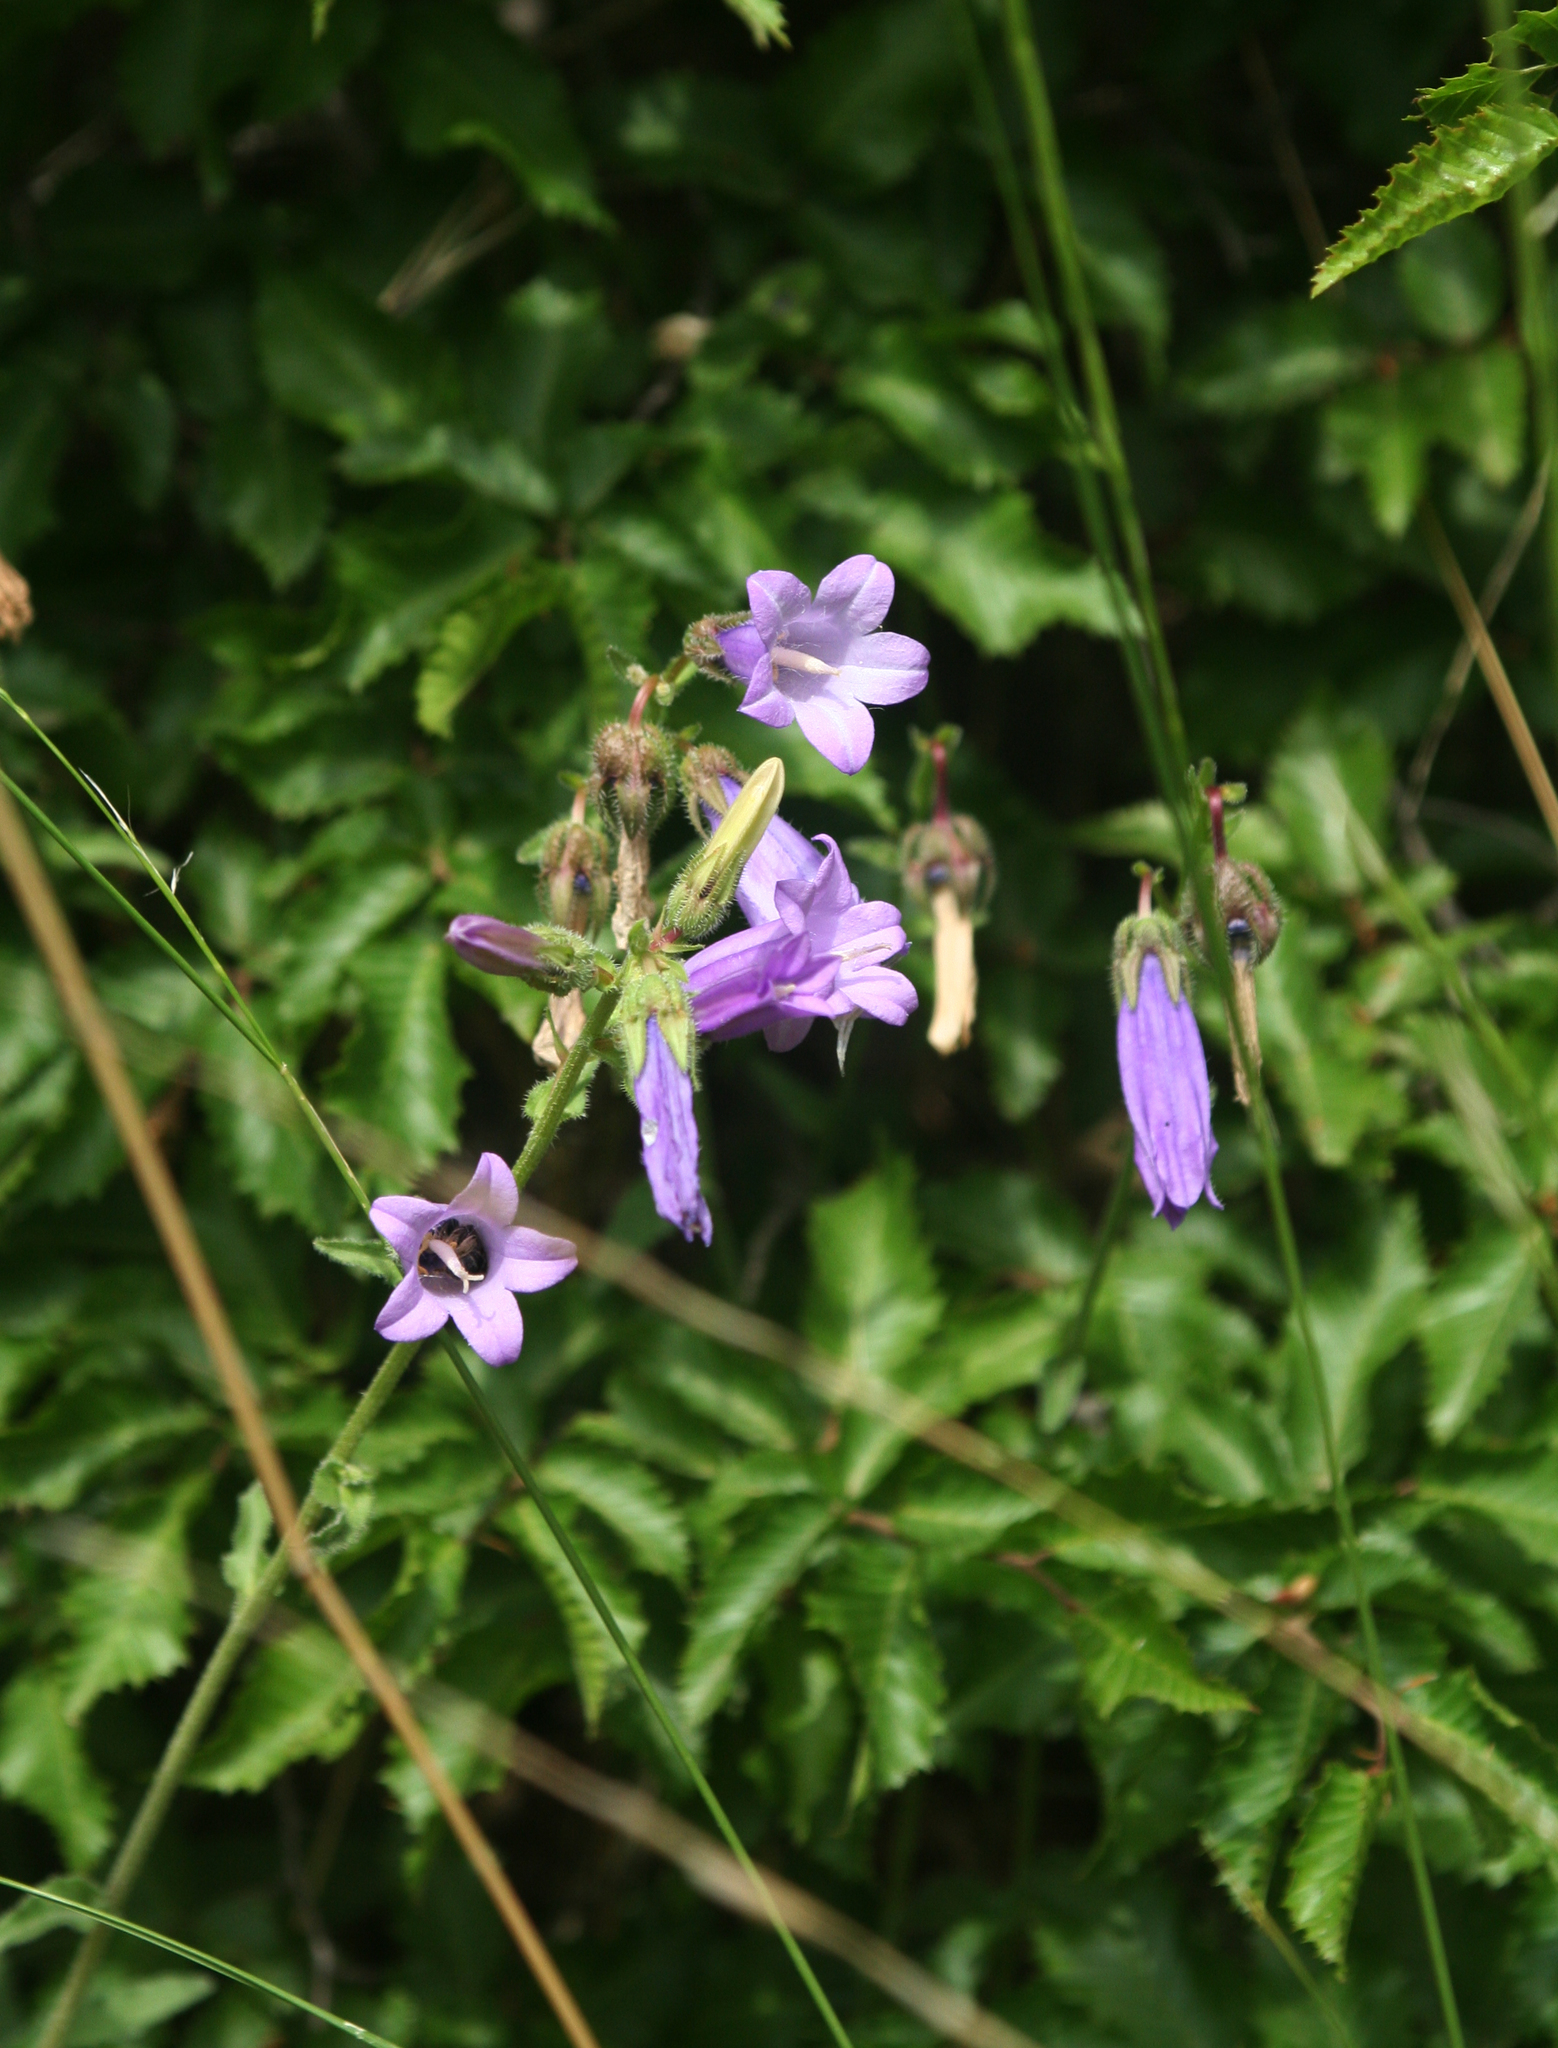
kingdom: Plantae
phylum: Tracheophyta
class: Magnoliopsida
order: Asterales
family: Campanulaceae
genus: Campanula
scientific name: Campanula komarovii
